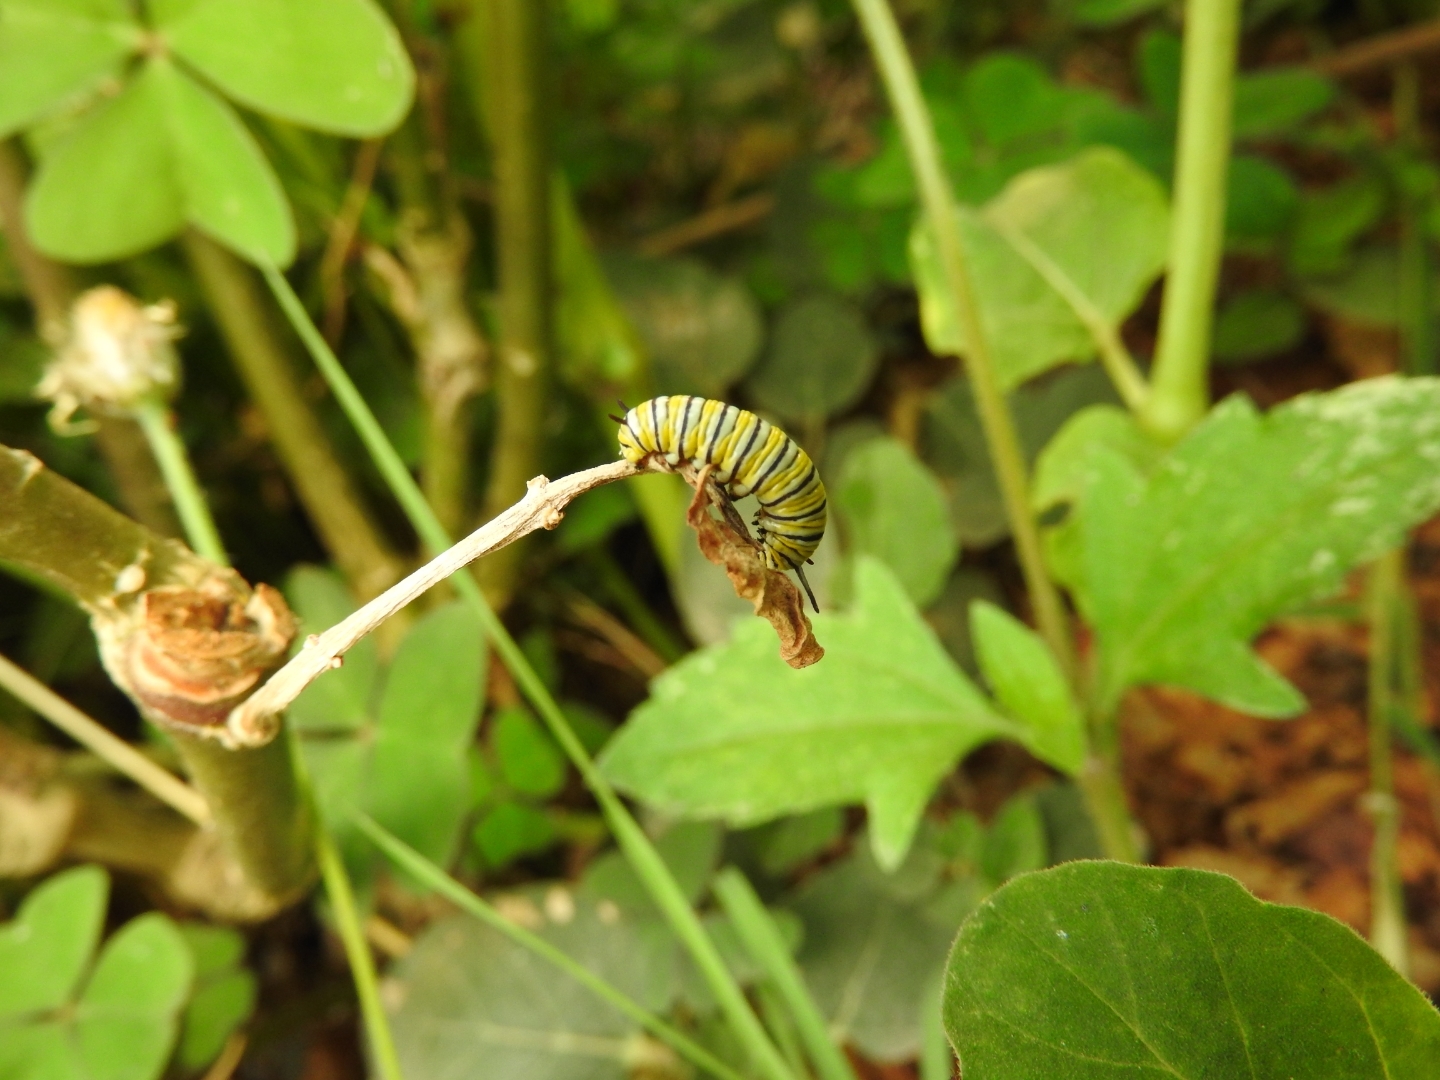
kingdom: Animalia
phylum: Arthropoda
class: Insecta
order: Lepidoptera
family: Nymphalidae
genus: Danaus
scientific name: Danaus plexippus
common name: Monarch
